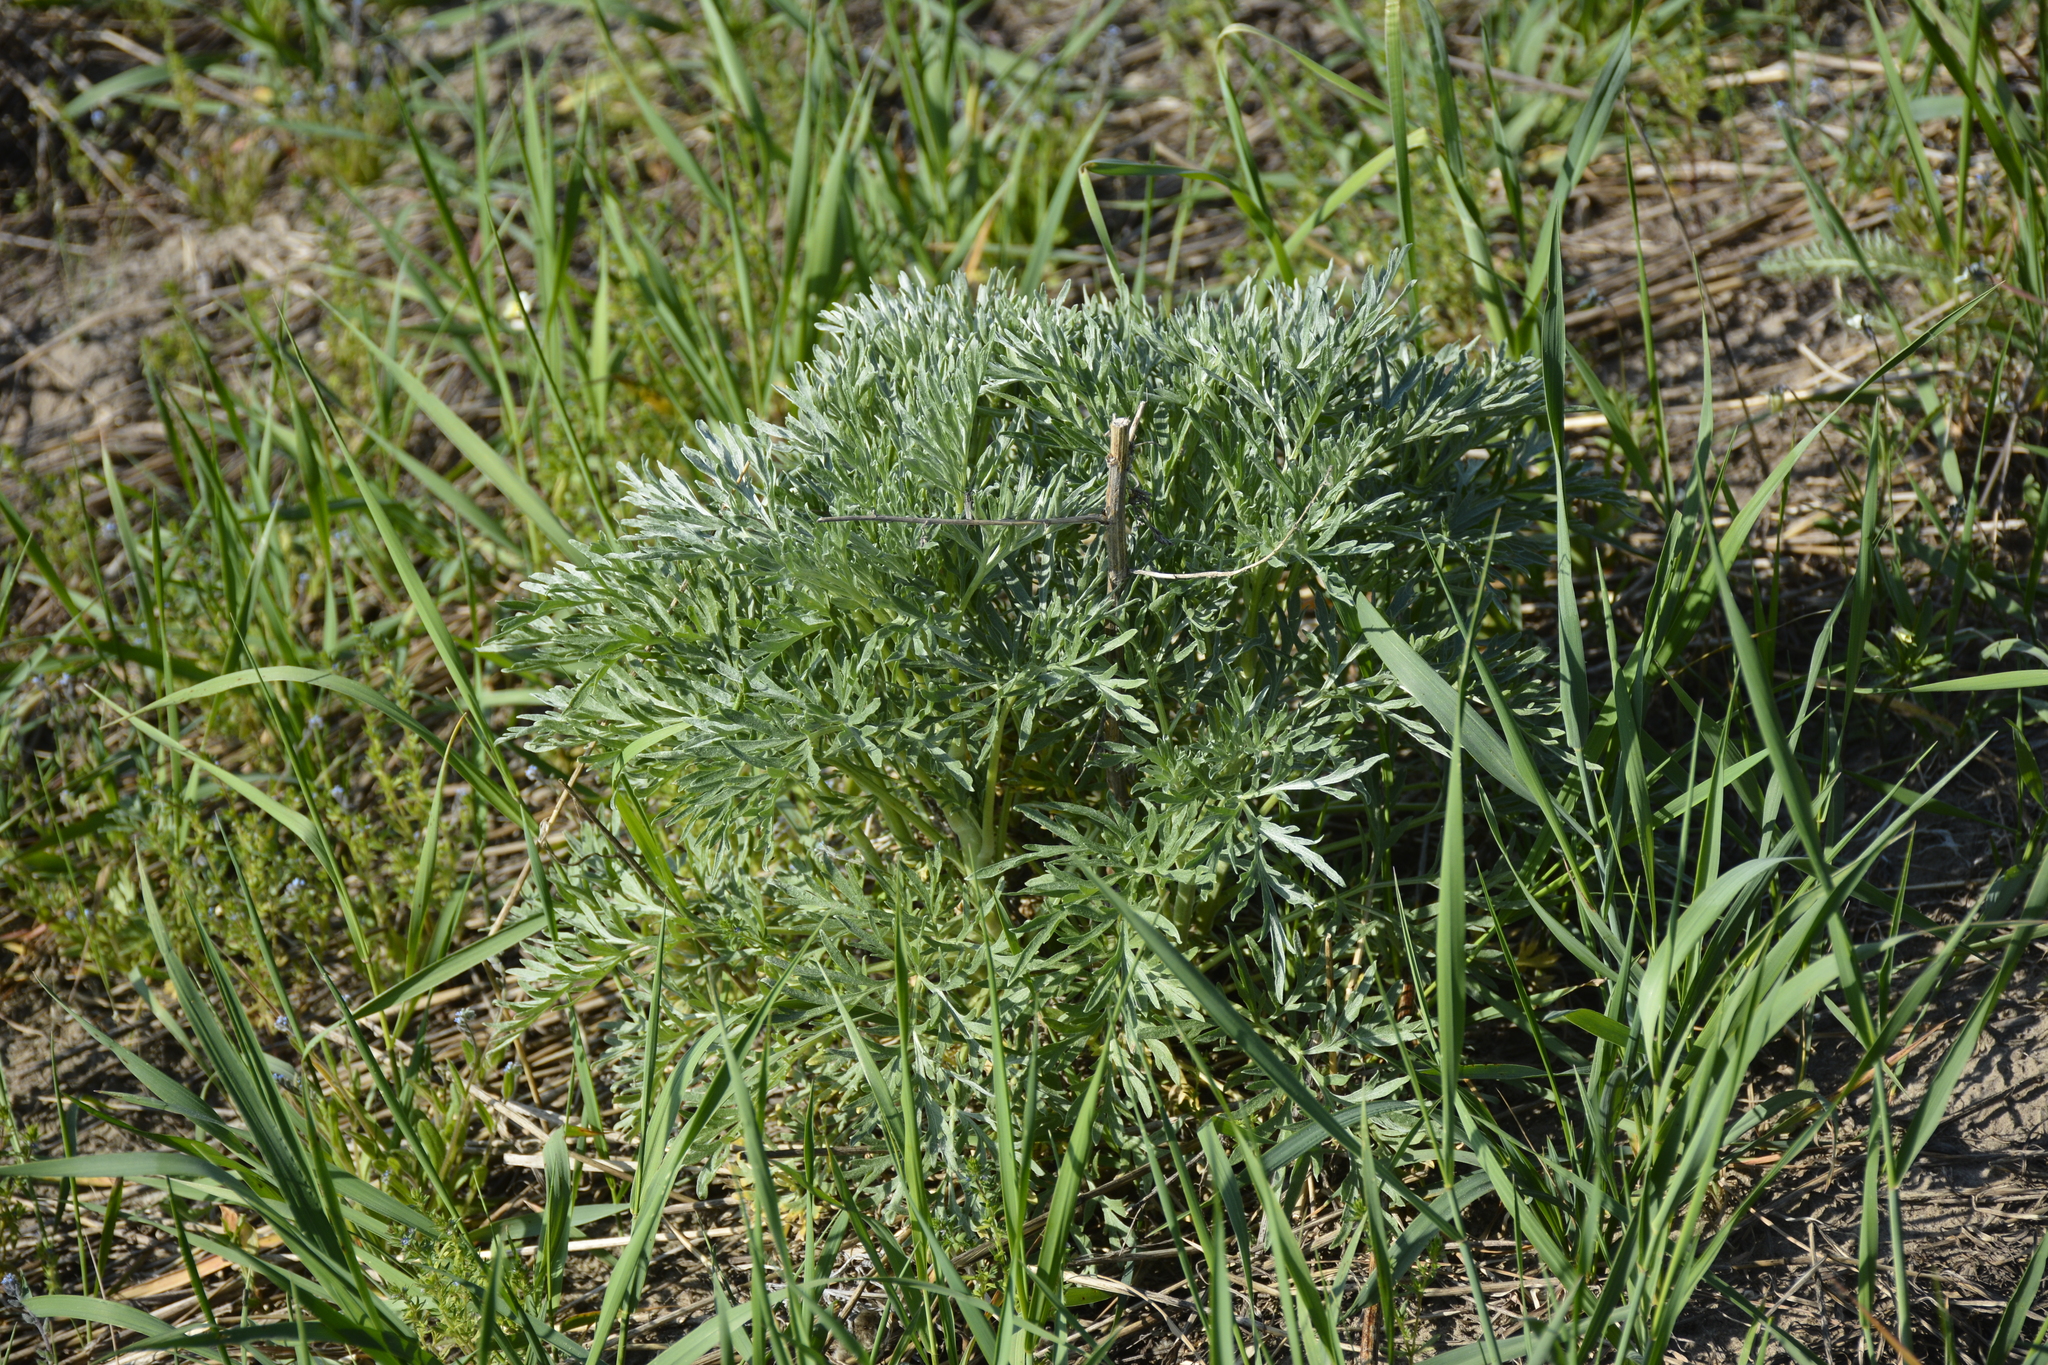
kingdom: Plantae
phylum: Tracheophyta
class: Magnoliopsida
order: Asterales
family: Asteraceae
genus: Artemisia
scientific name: Artemisia absinthium
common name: Wormwood
